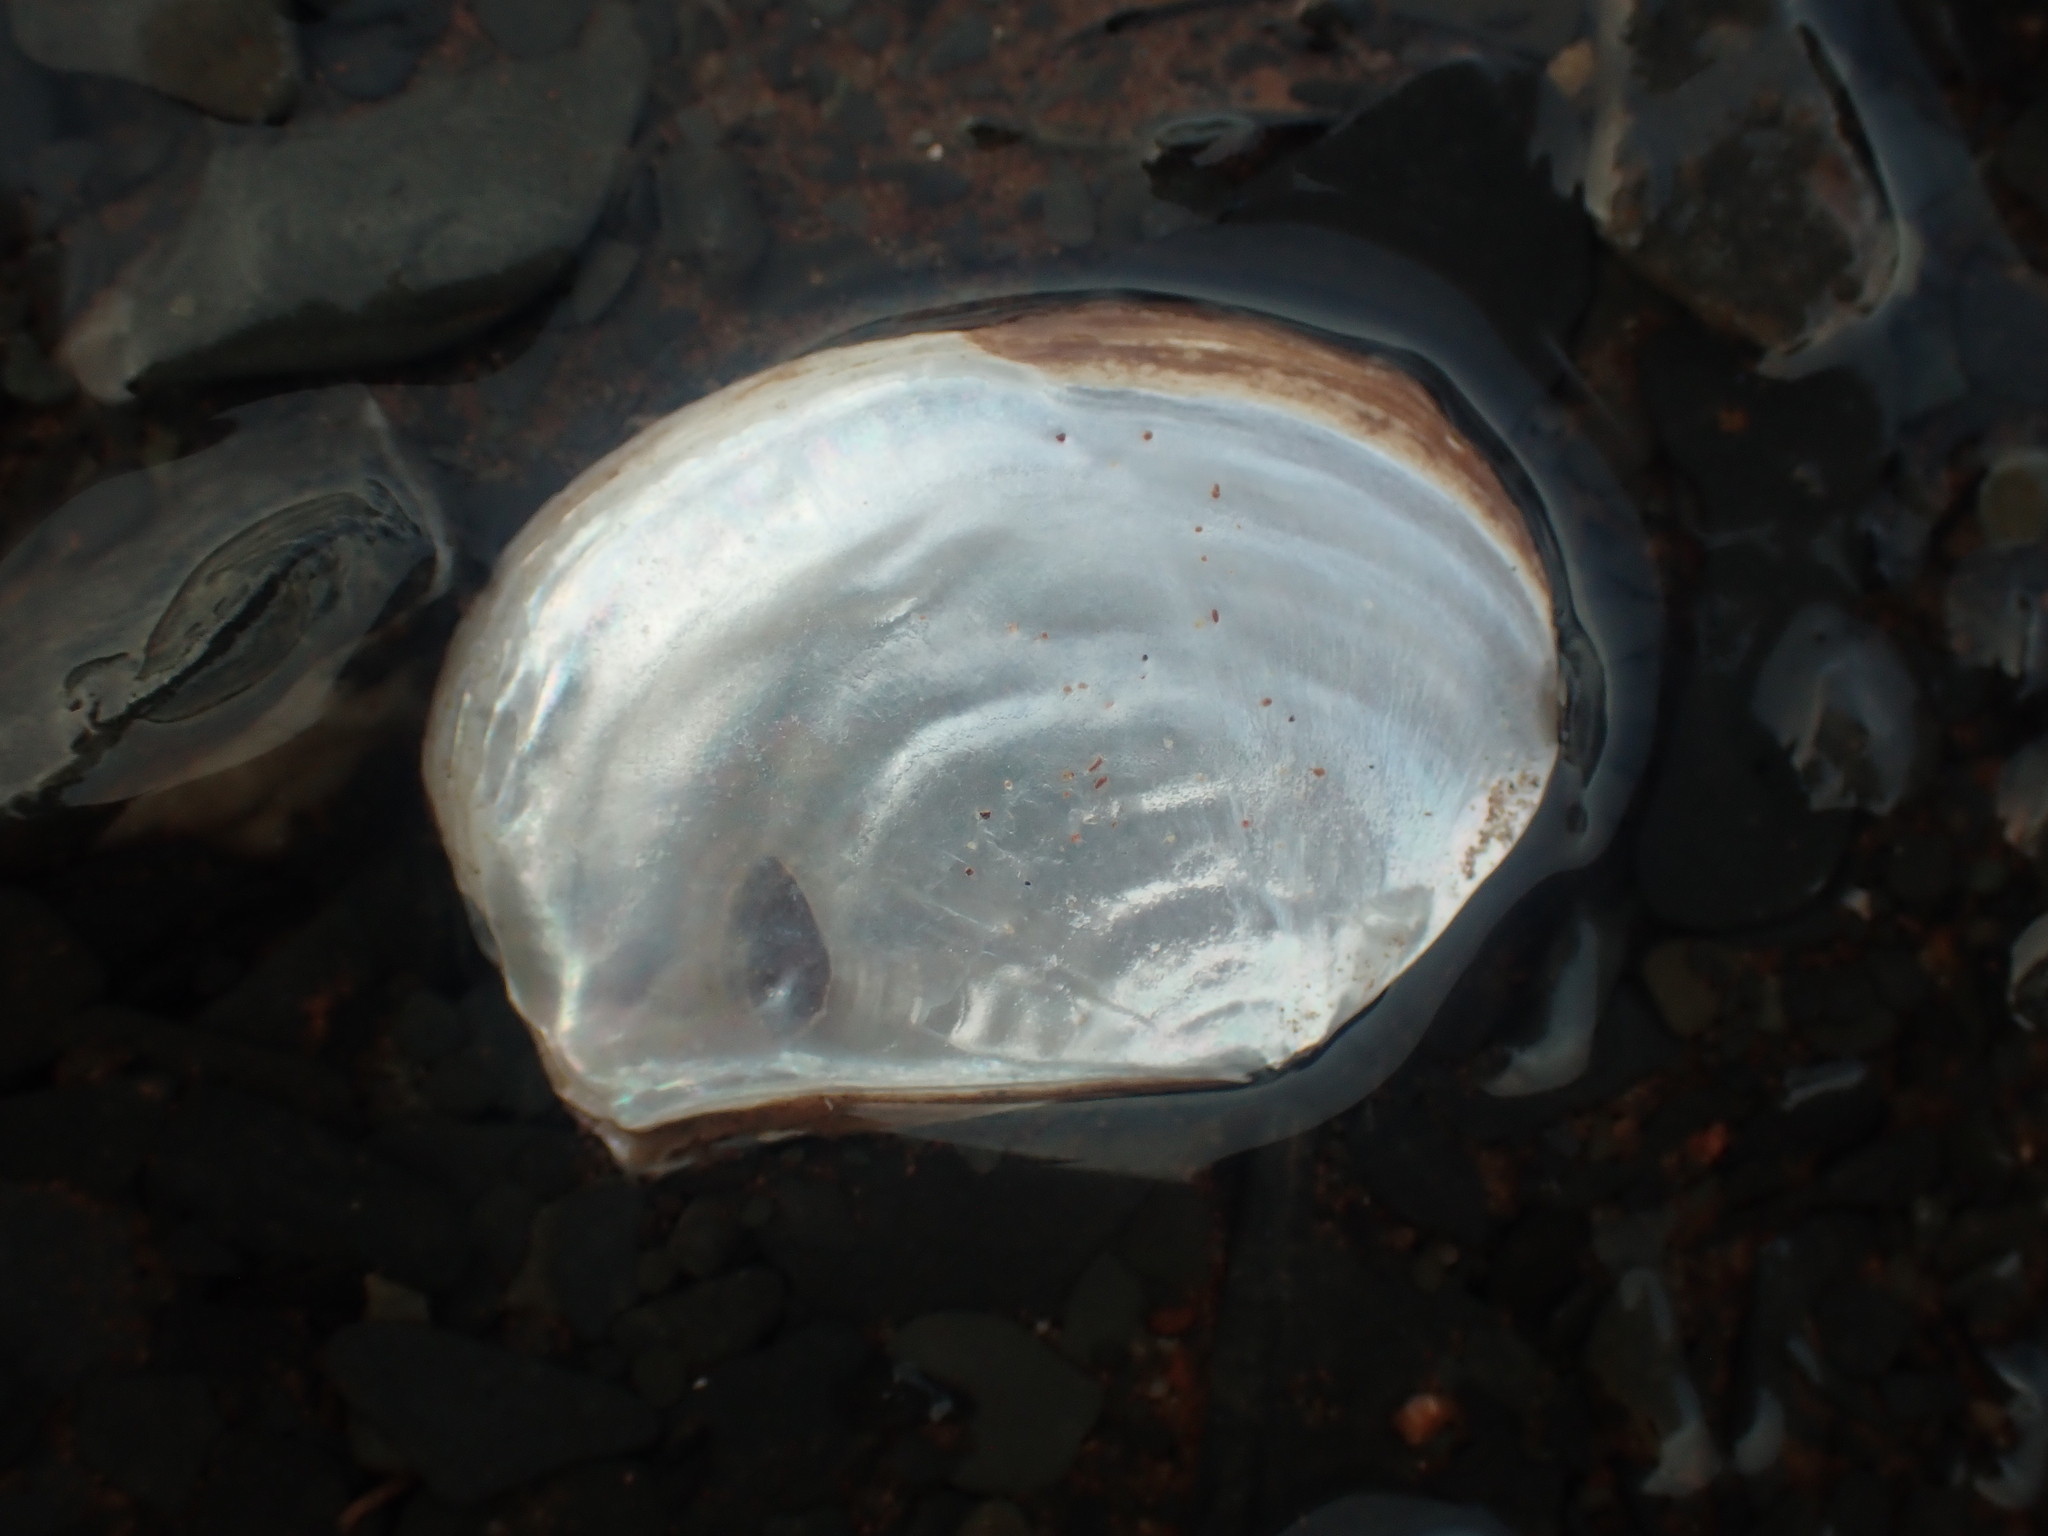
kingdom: Animalia
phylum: Mollusca
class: Bivalvia
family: Pandoridae
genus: Pandora
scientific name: Pandora gouldiana
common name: Rounded pandora
